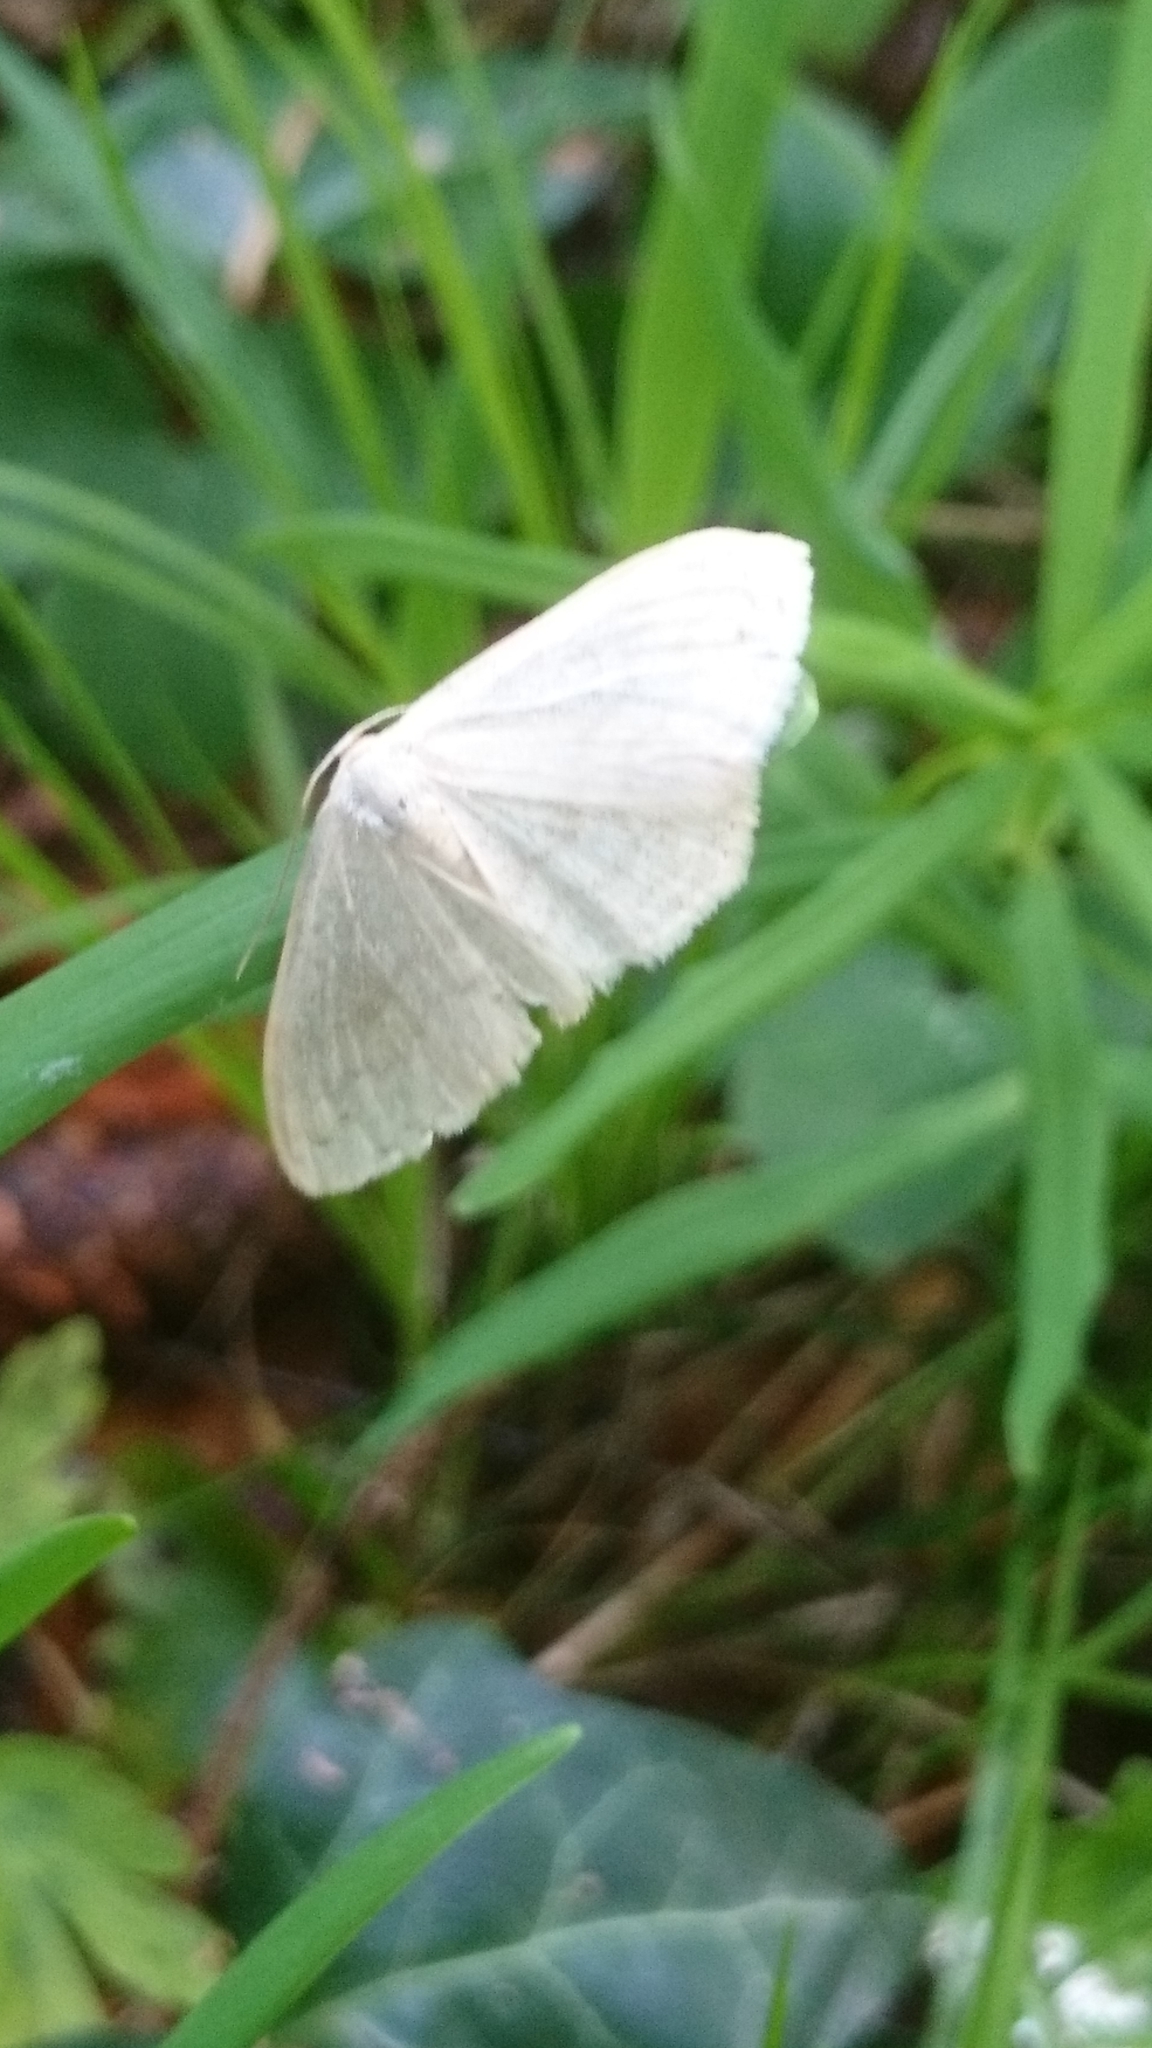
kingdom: Animalia
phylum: Arthropoda
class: Insecta
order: Lepidoptera
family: Geometridae
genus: Scopula
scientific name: Scopula floslactata
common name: Cream wave
